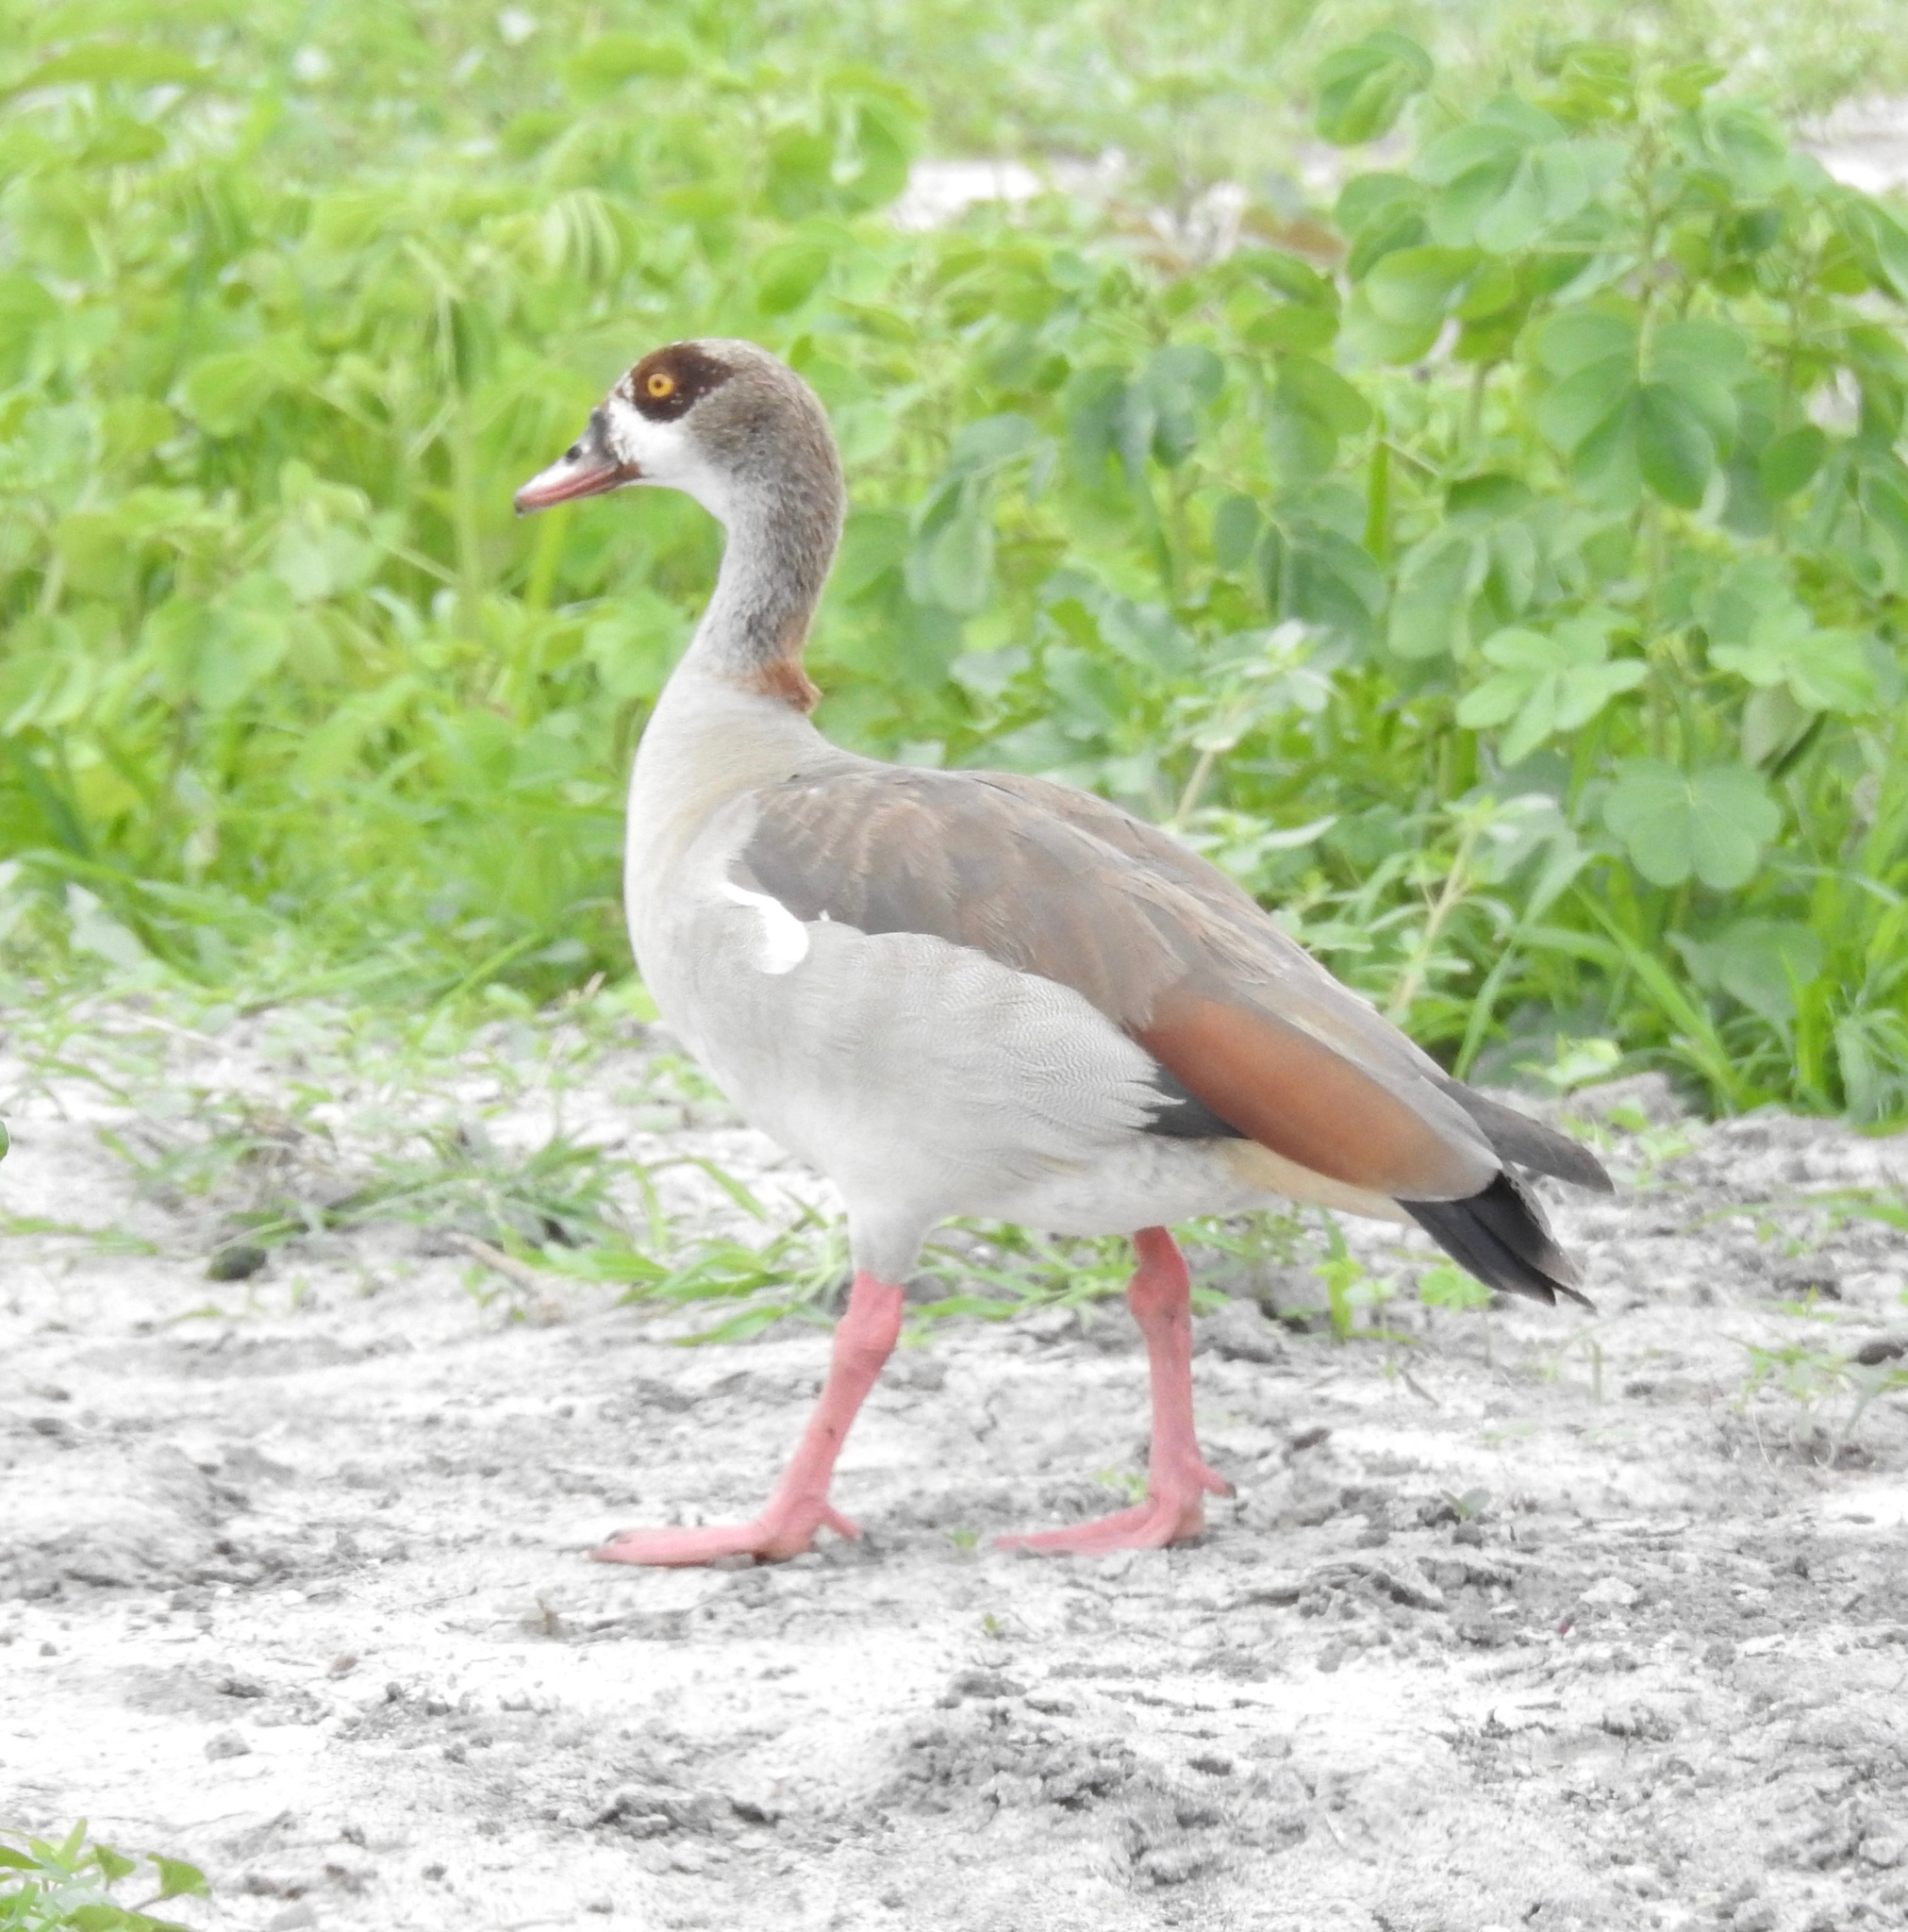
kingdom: Animalia
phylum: Chordata
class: Aves
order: Anseriformes
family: Anatidae
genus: Alopochen
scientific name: Alopochen aegyptiaca
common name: Egyptian goose
